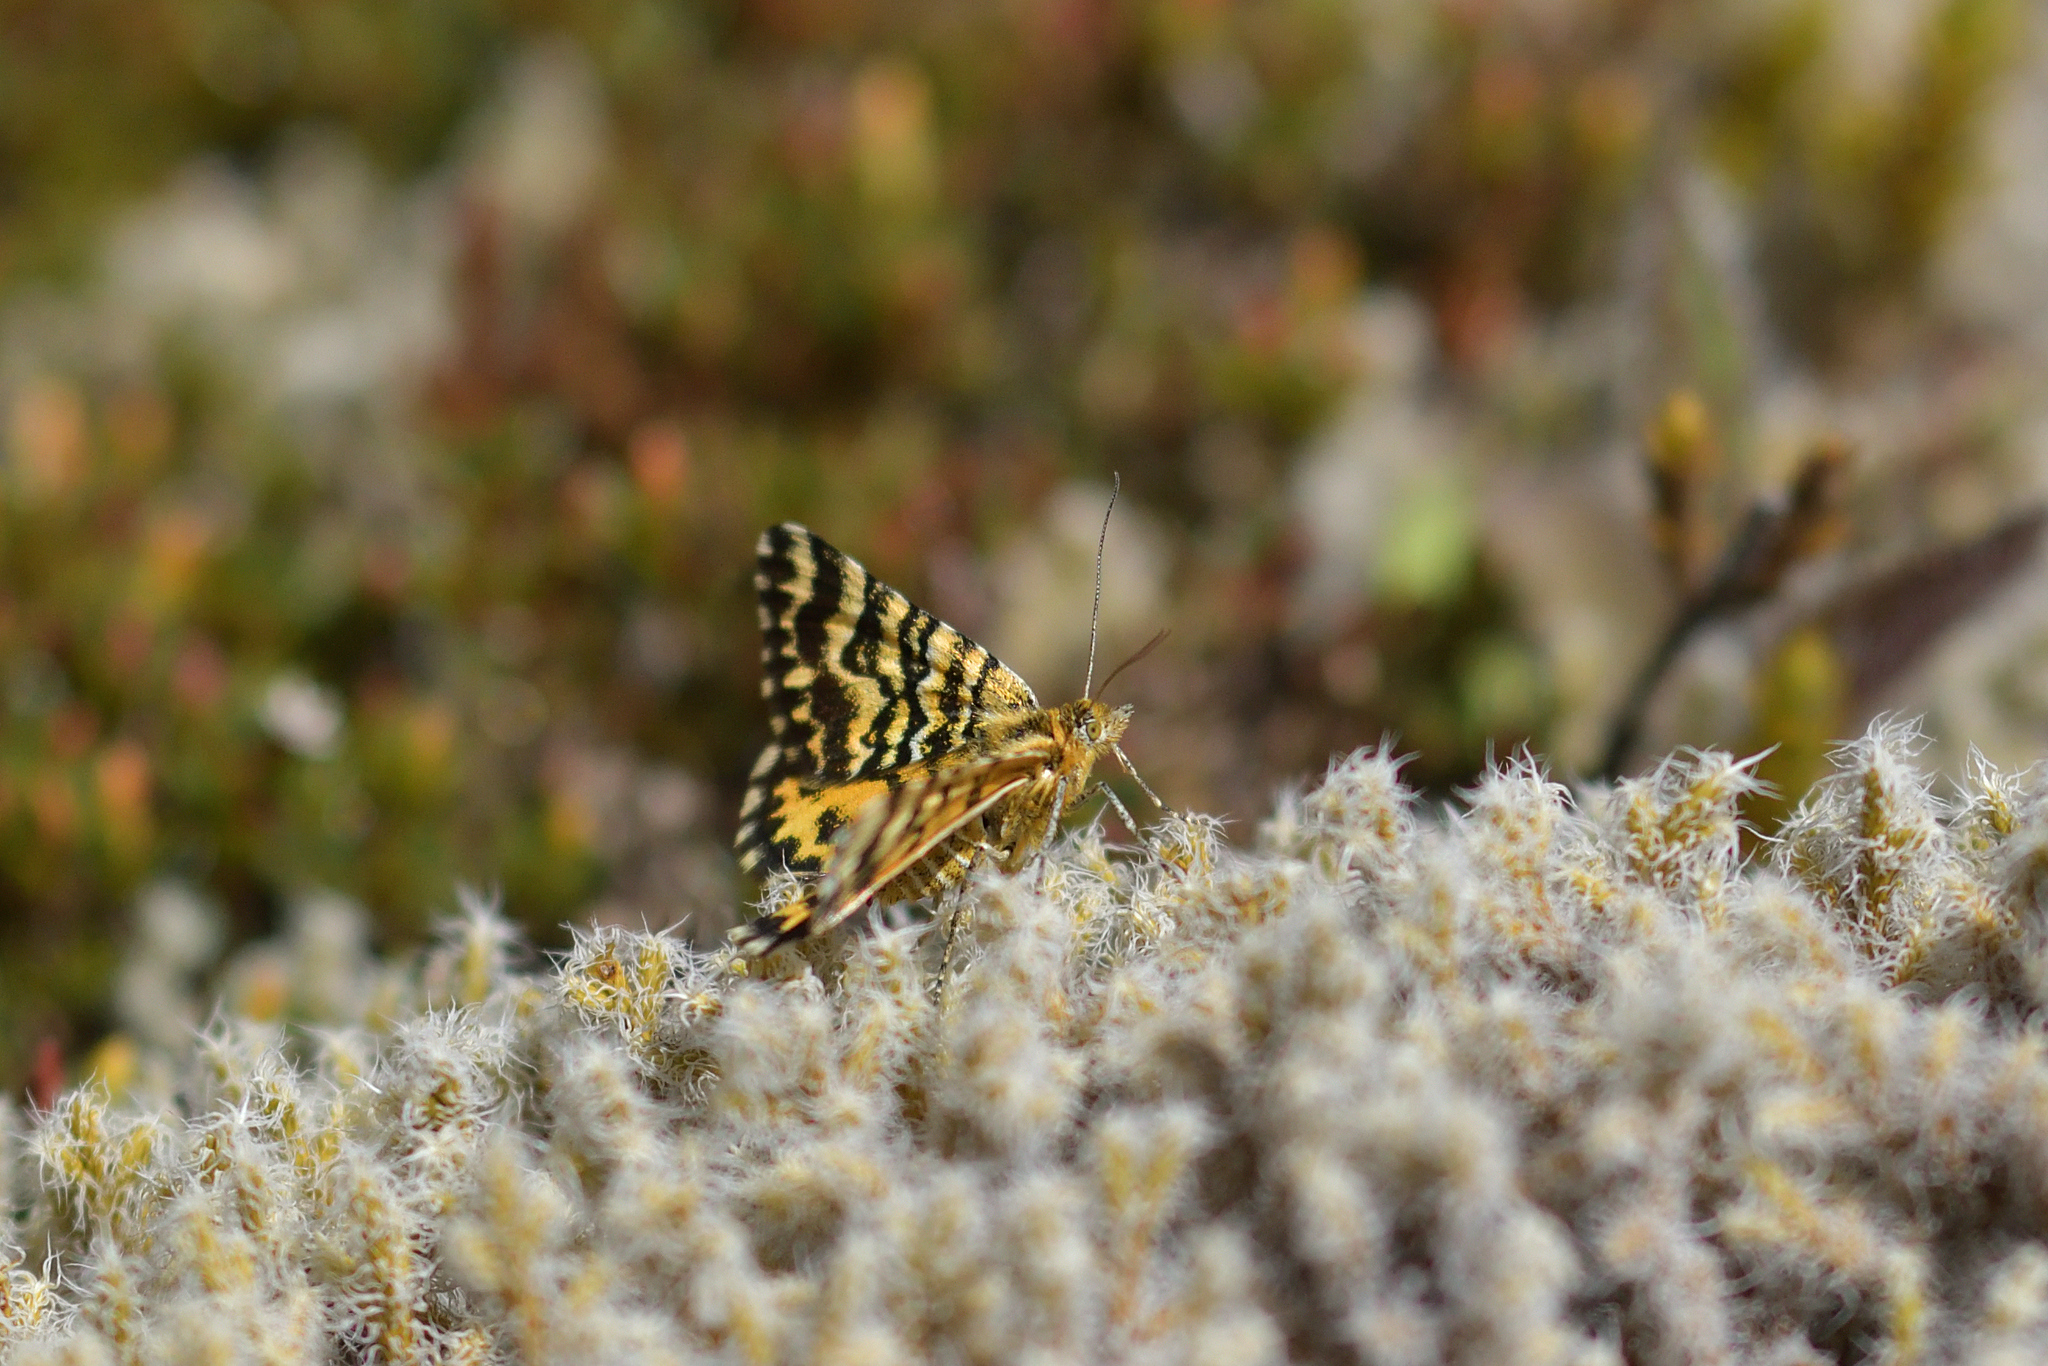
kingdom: Animalia
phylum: Arthropoda
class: Insecta
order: Lepidoptera
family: Geometridae
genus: Notoreas
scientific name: Notoreas perornata
